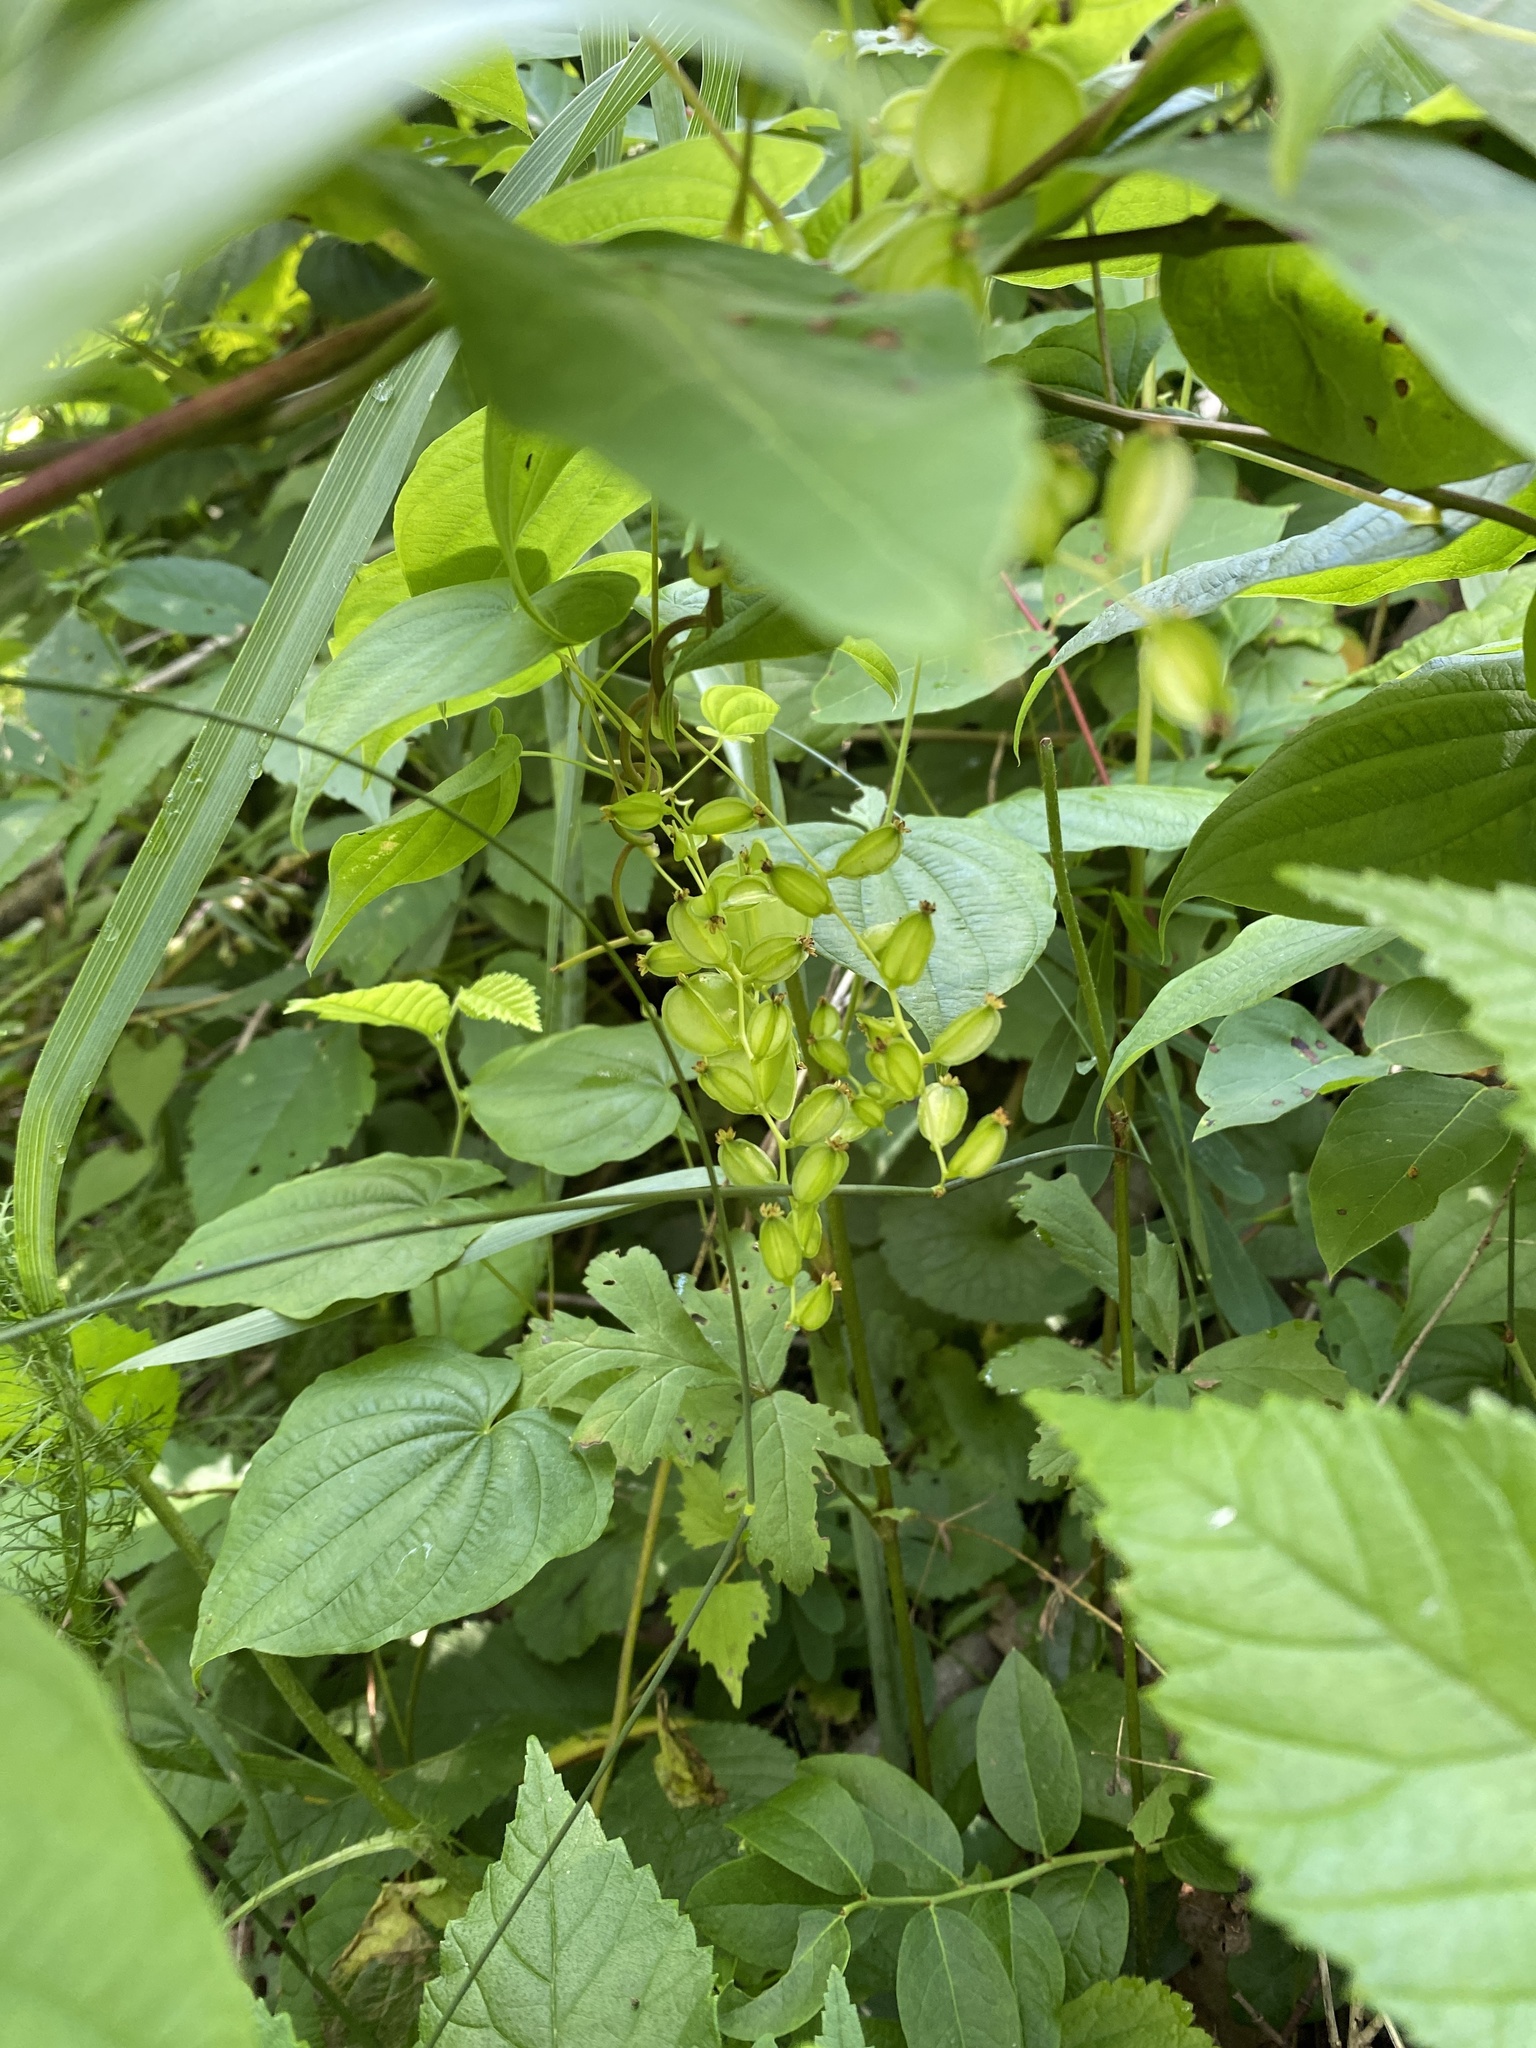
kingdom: Plantae
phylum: Tracheophyta
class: Liliopsida
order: Dioscoreales
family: Dioscoreaceae
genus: Dioscorea
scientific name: Dioscorea villosa
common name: Wild yam
